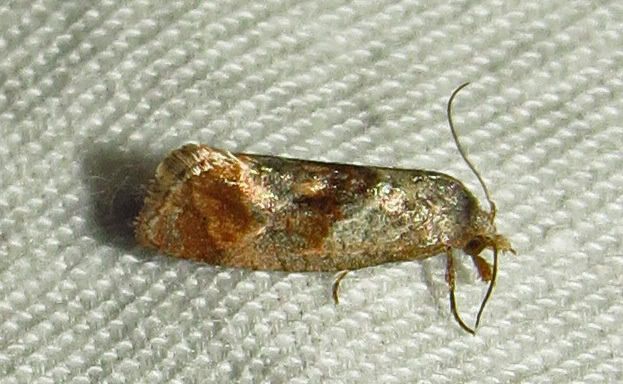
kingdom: Animalia
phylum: Arthropoda
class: Insecta
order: Lepidoptera
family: Tortricidae
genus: Cochylis
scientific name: Cochylis Cochylichroa temerana
